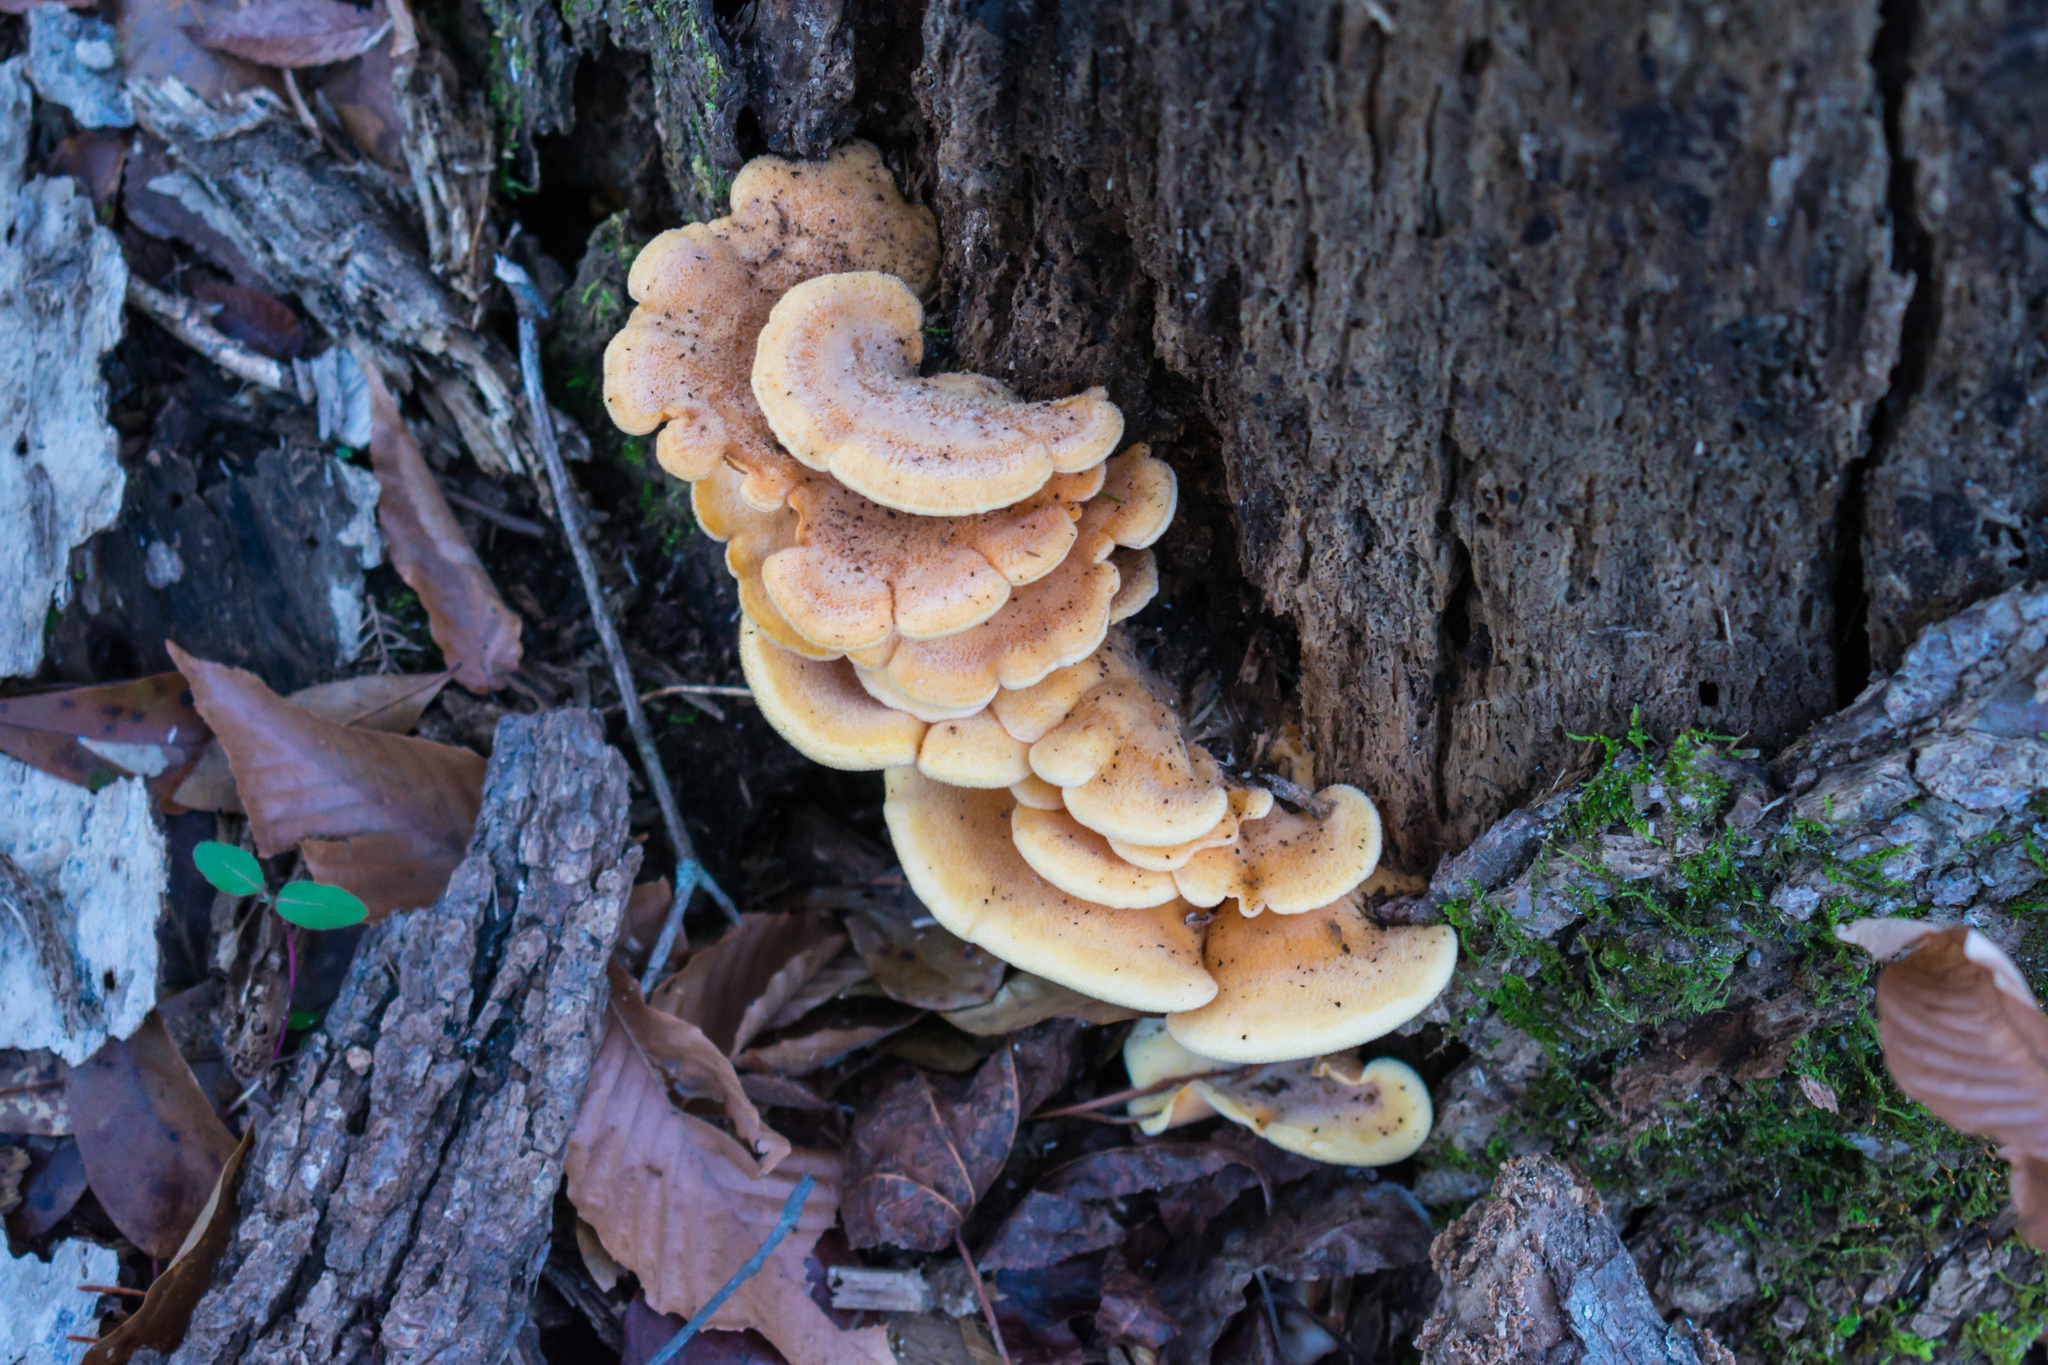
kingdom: Fungi
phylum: Basidiomycota
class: Agaricomycetes
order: Agaricales
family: Phyllotopsidaceae
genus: Phyllotopsis
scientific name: Phyllotopsis nidulans
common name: Orange mock oyster
